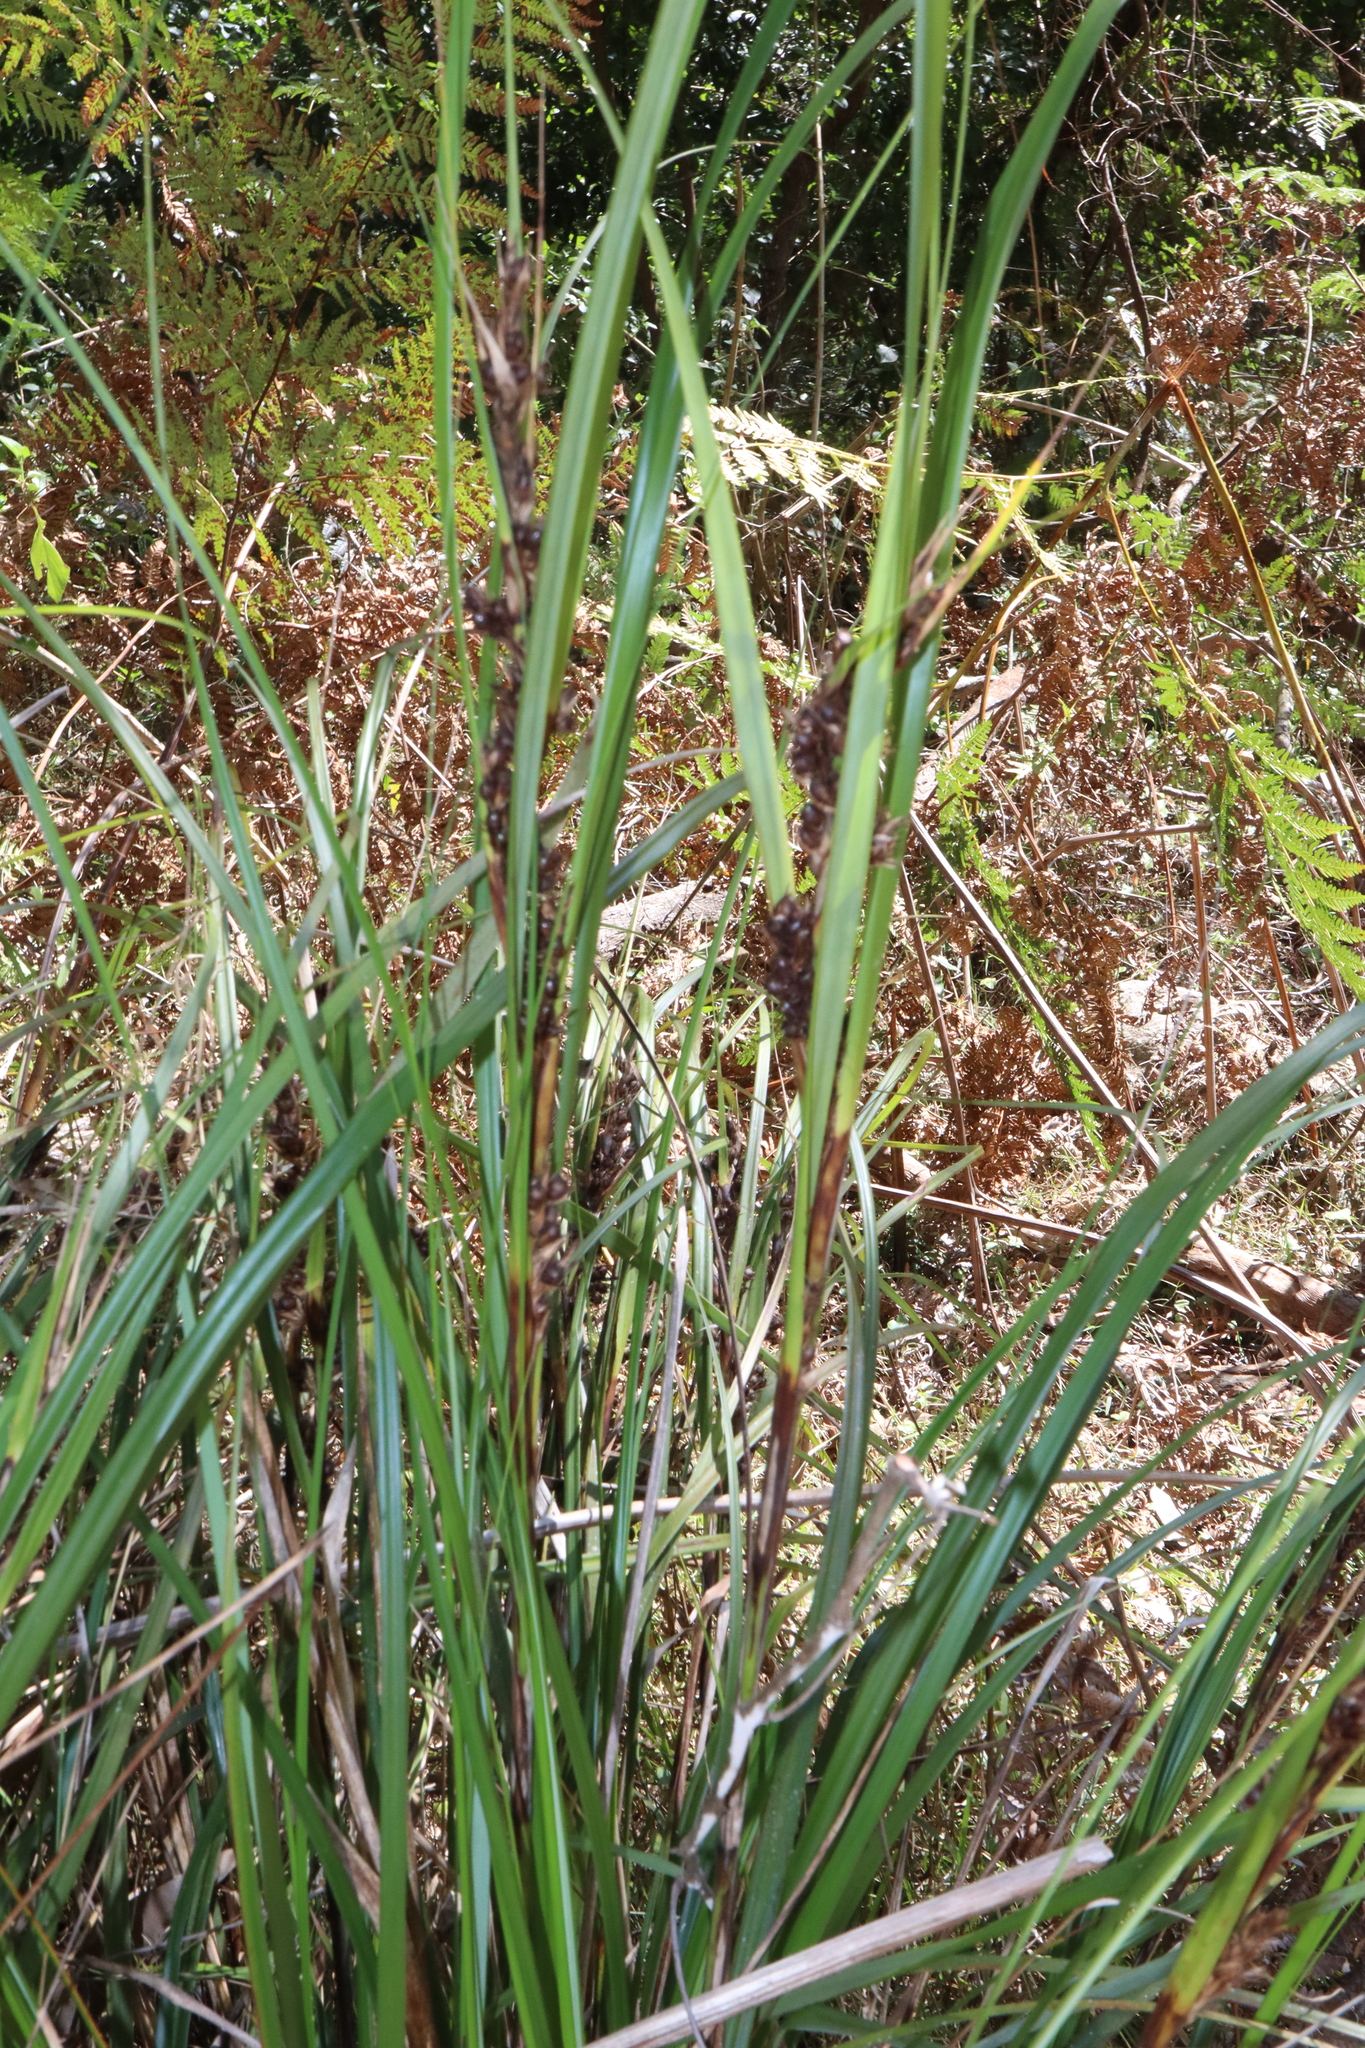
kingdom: Plantae
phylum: Tracheophyta
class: Liliopsida
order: Poales
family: Cyperaceae
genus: Gahnia
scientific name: Gahnia aspera
